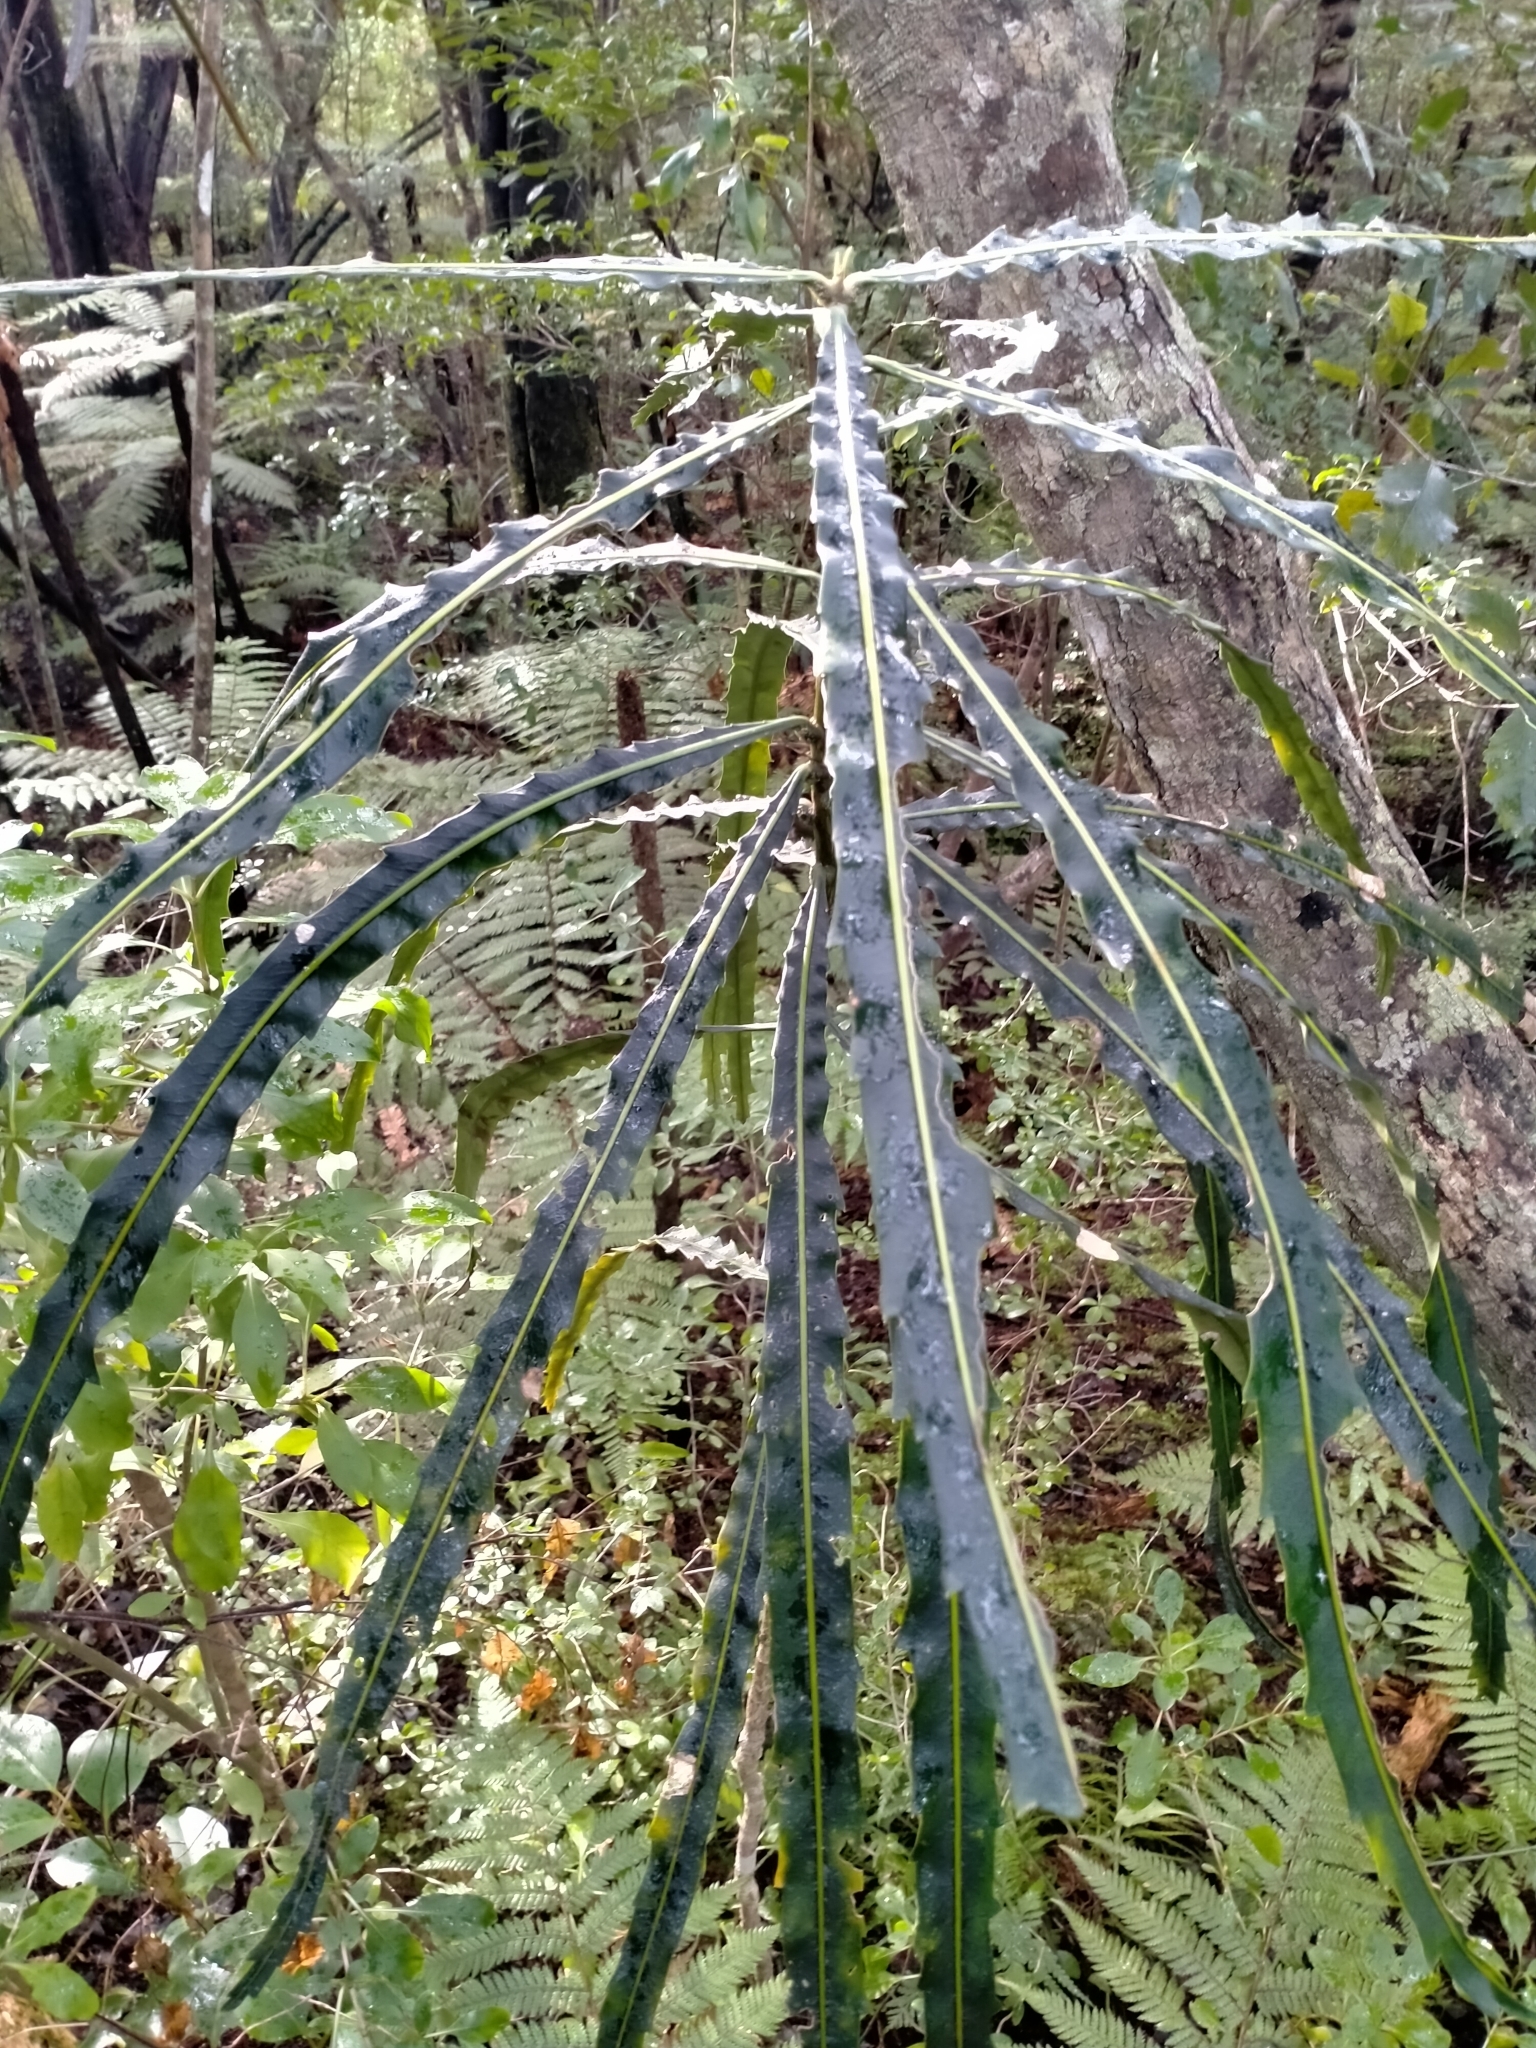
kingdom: Plantae
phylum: Tracheophyta
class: Magnoliopsida
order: Apiales
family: Araliaceae
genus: Pseudopanax
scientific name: Pseudopanax crassifolius
